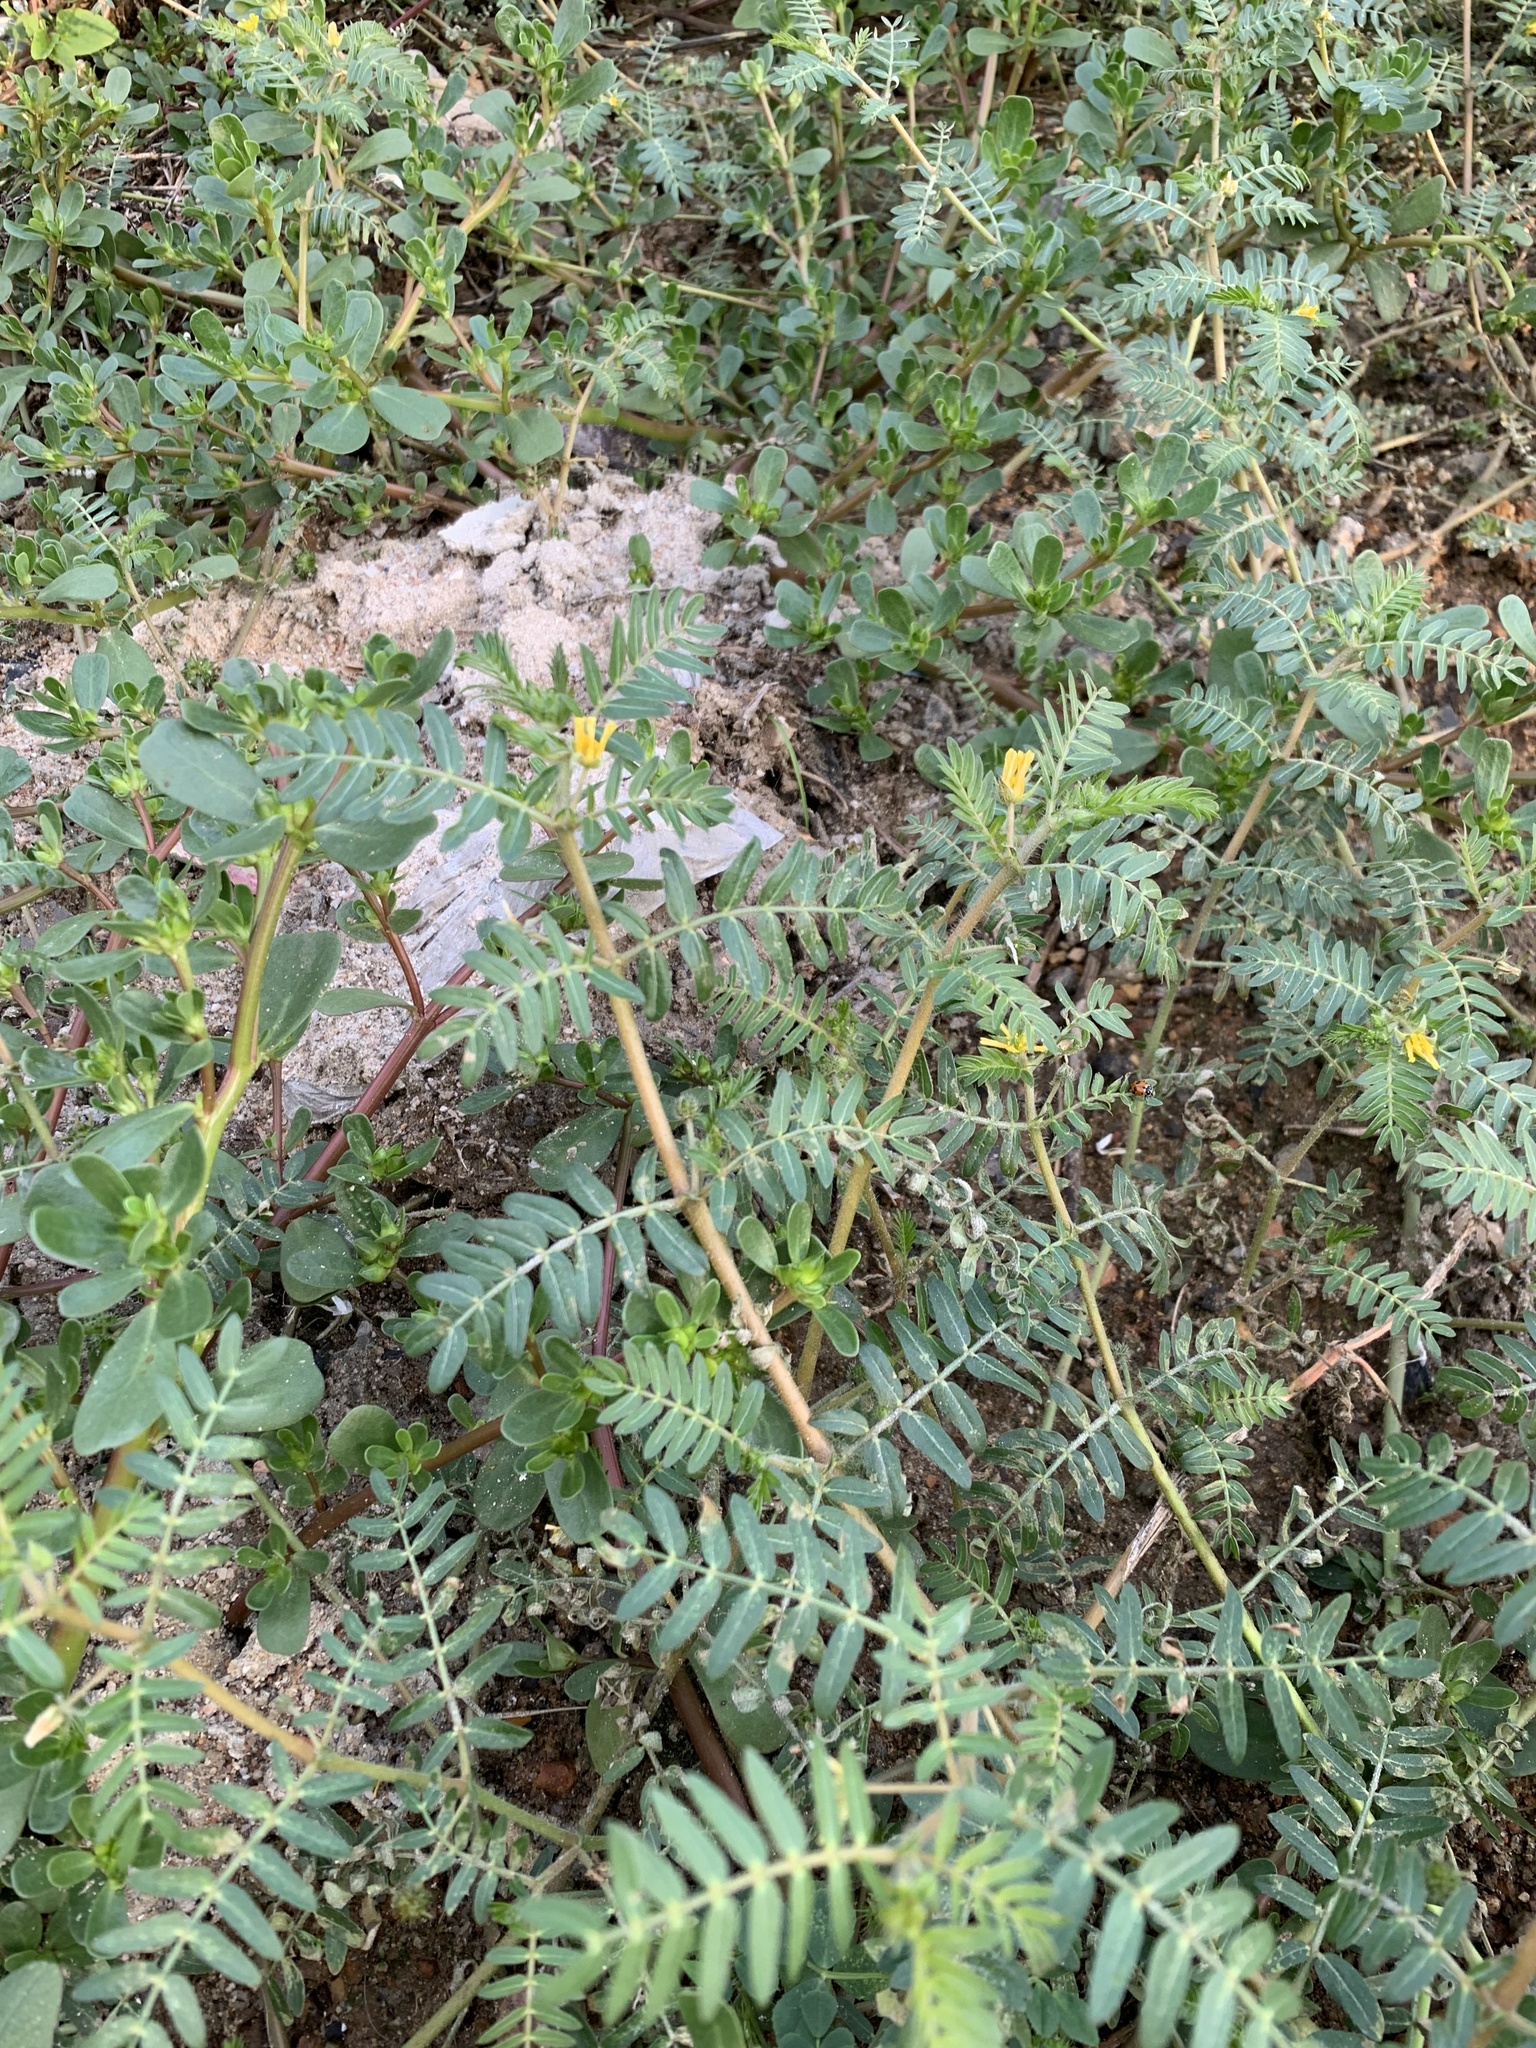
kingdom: Plantae
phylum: Tracheophyta
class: Magnoliopsida
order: Zygophyllales
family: Zygophyllaceae
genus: Tribulus
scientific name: Tribulus terrestris
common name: Puncturevine
